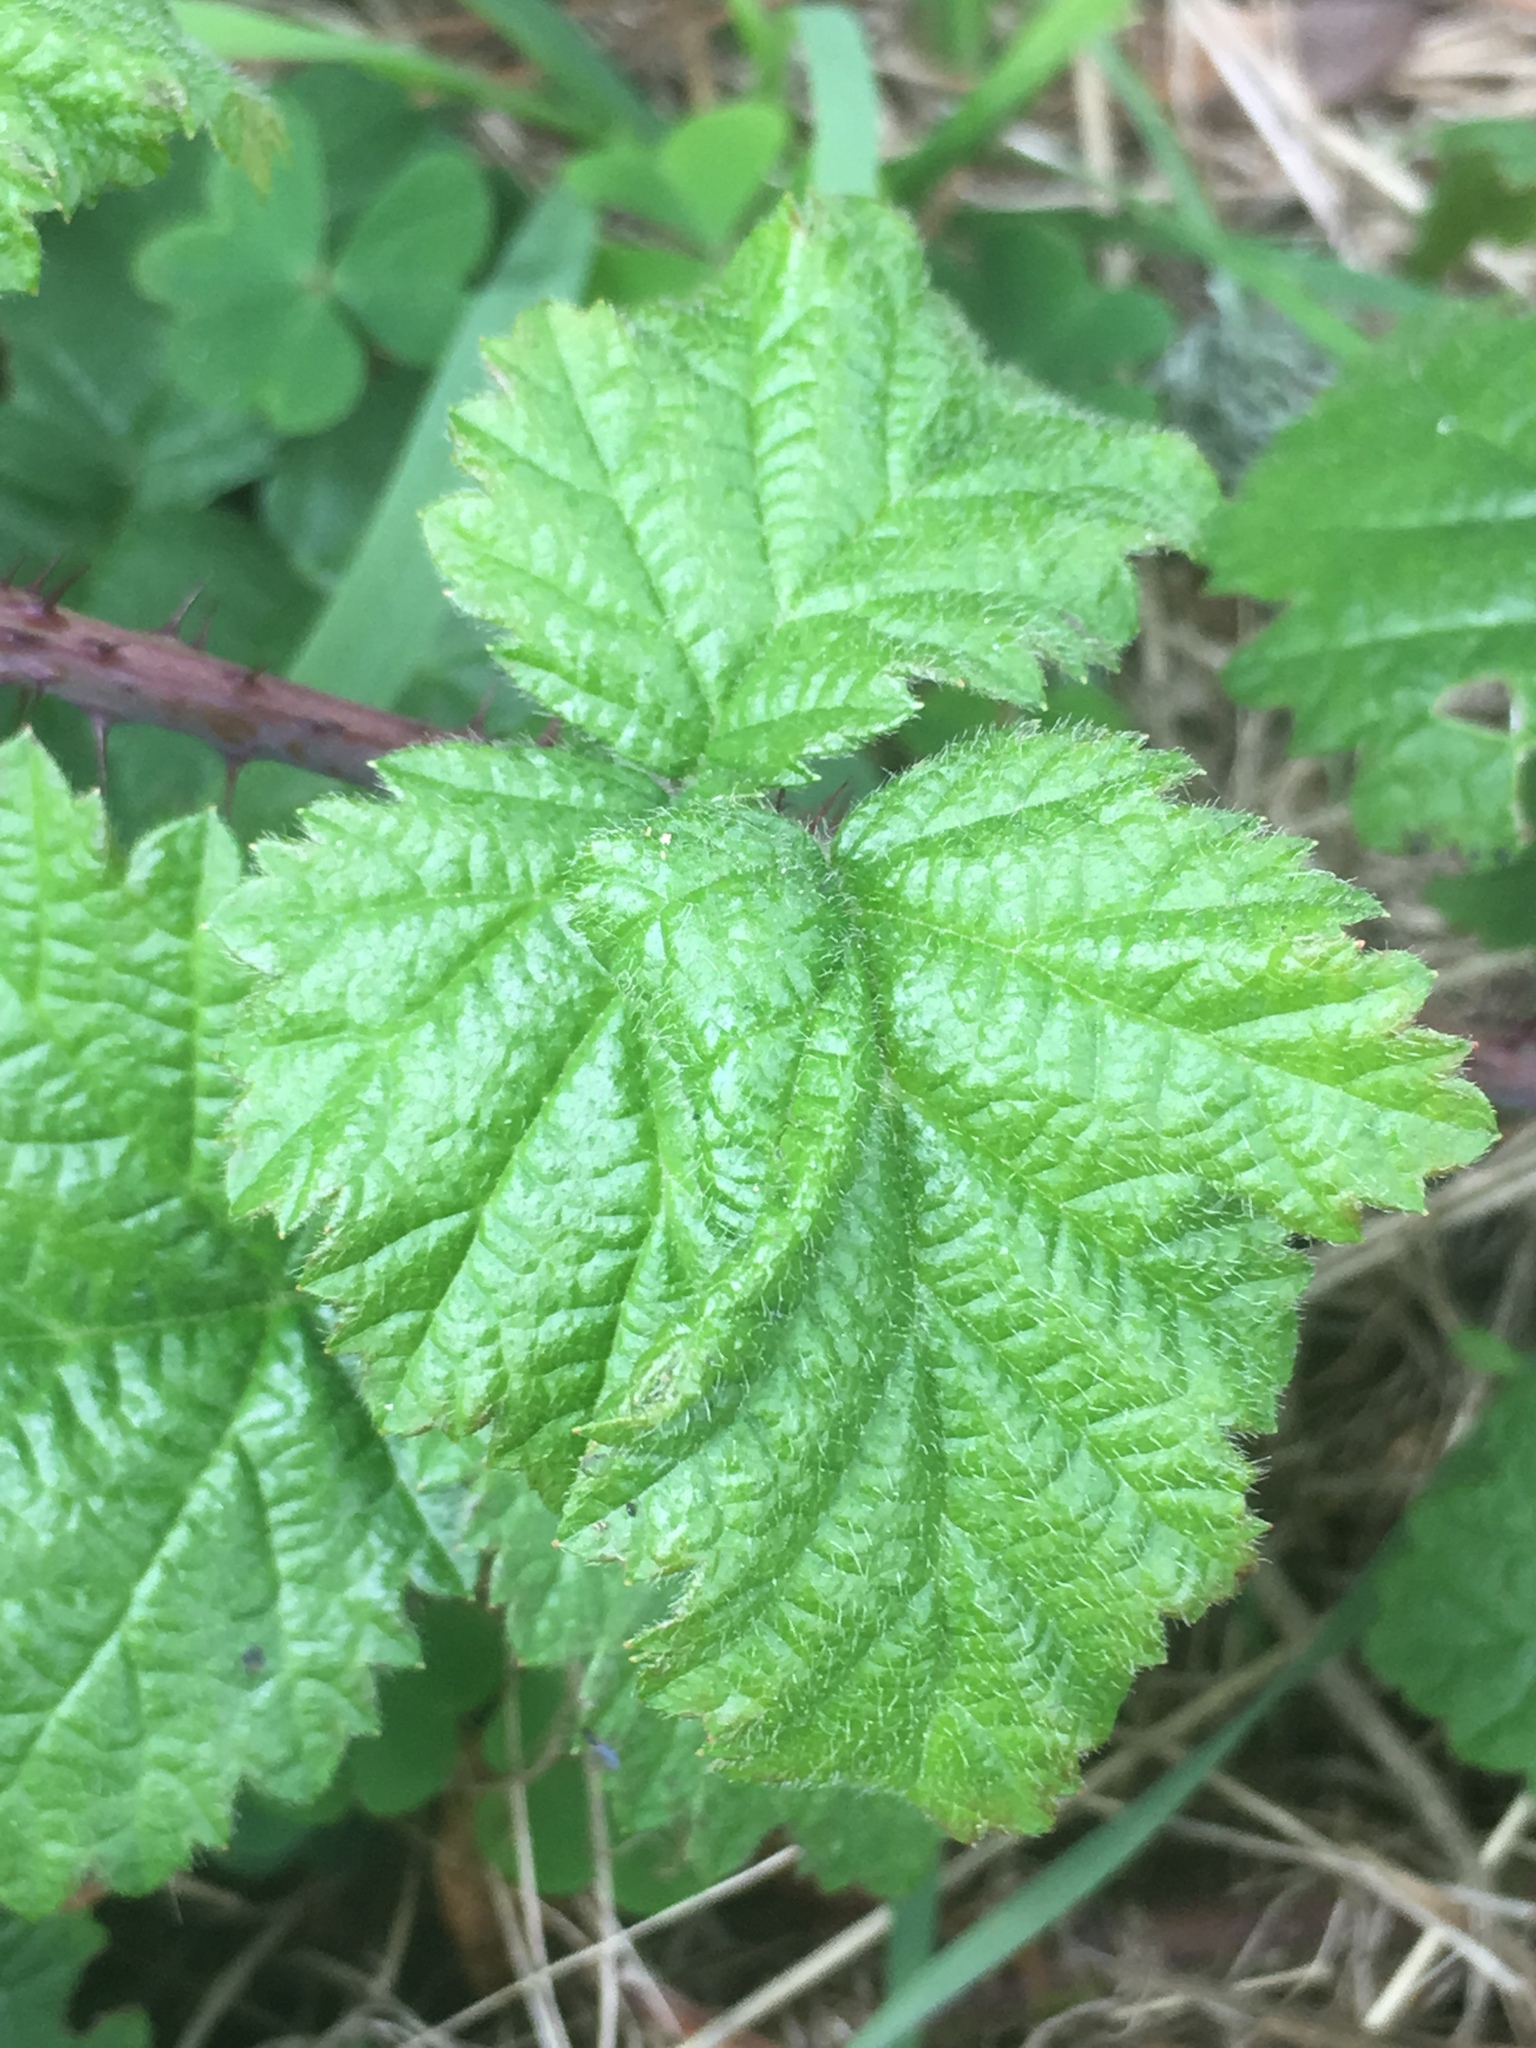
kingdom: Plantae
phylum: Tracheophyta
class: Magnoliopsida
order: Rosales
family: Rosaceae
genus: Rubus
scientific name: Rubus ursinus
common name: Pacific blackberry
